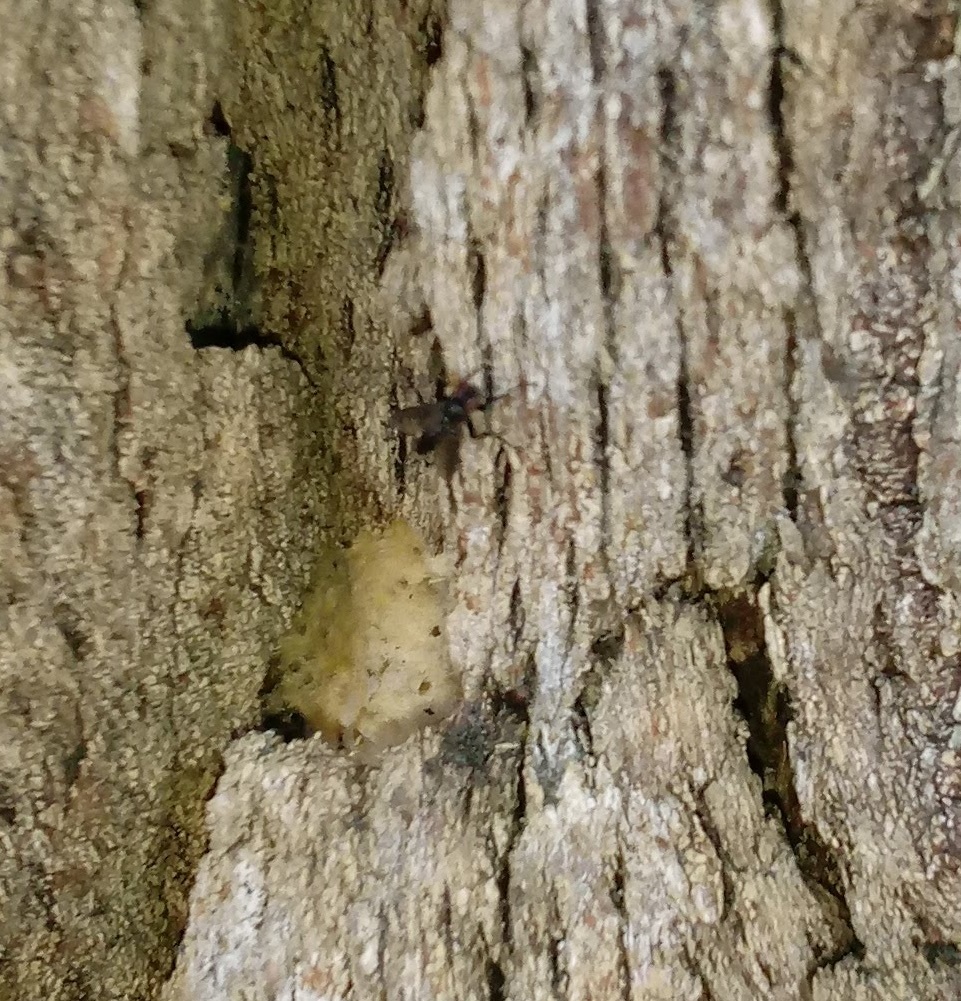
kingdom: Animalia
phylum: Arthropoda
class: Insecta
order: Diptera
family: Calliphoridae
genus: Melanophora
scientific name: Melanophora roralis
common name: Smoky-winged woodlouse-fly
